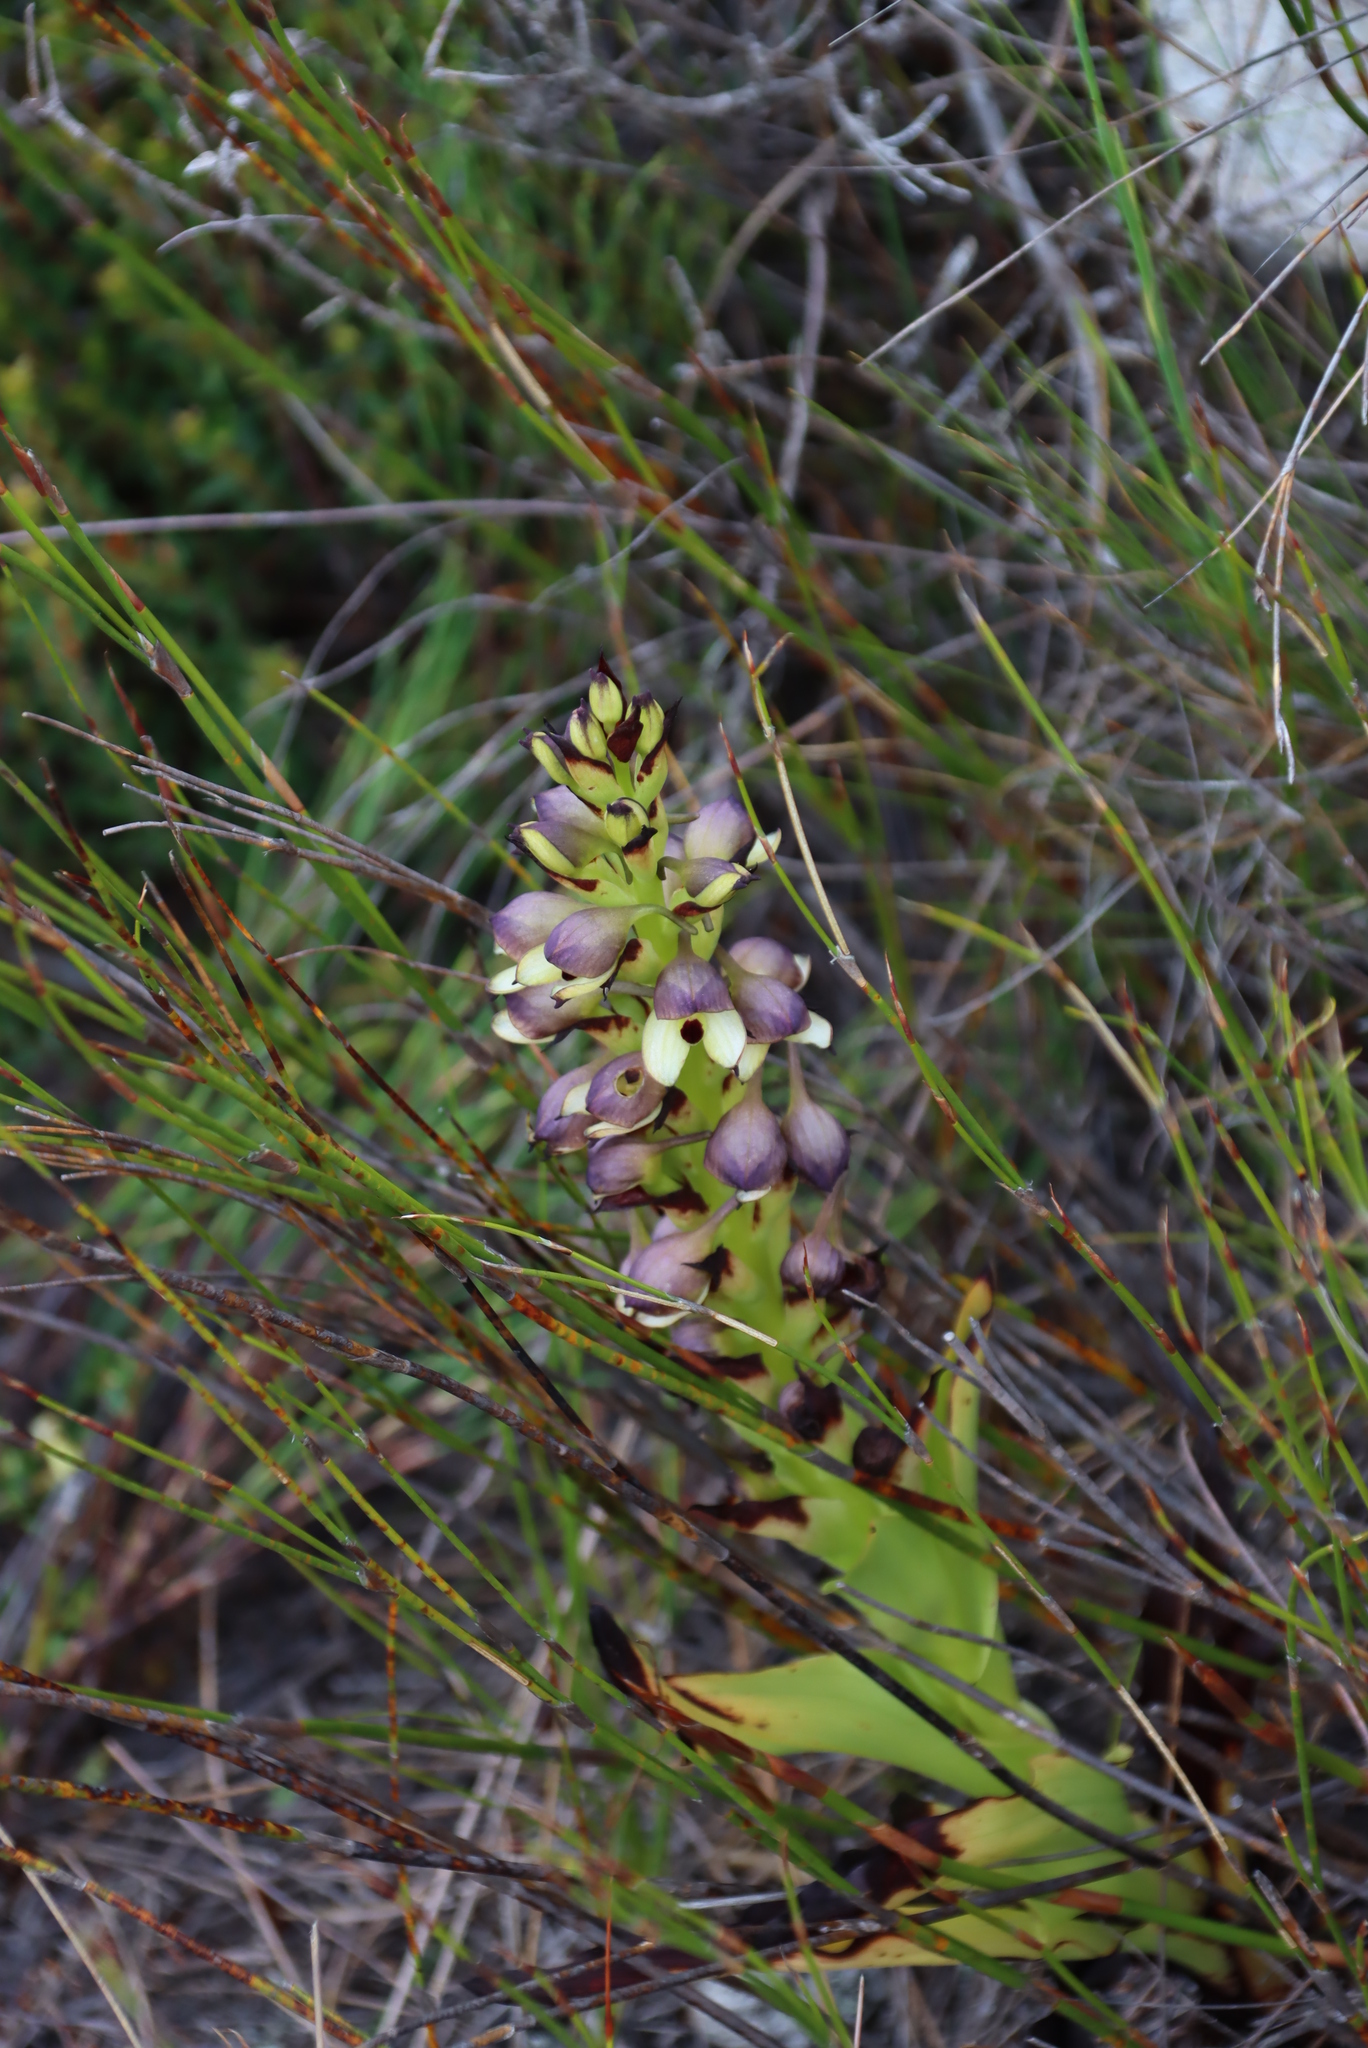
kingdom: Plantae
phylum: Tracheophyta
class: Liliopsida
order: Asparagales
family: Orchidaceae
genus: Disa
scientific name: Disa cornuta
